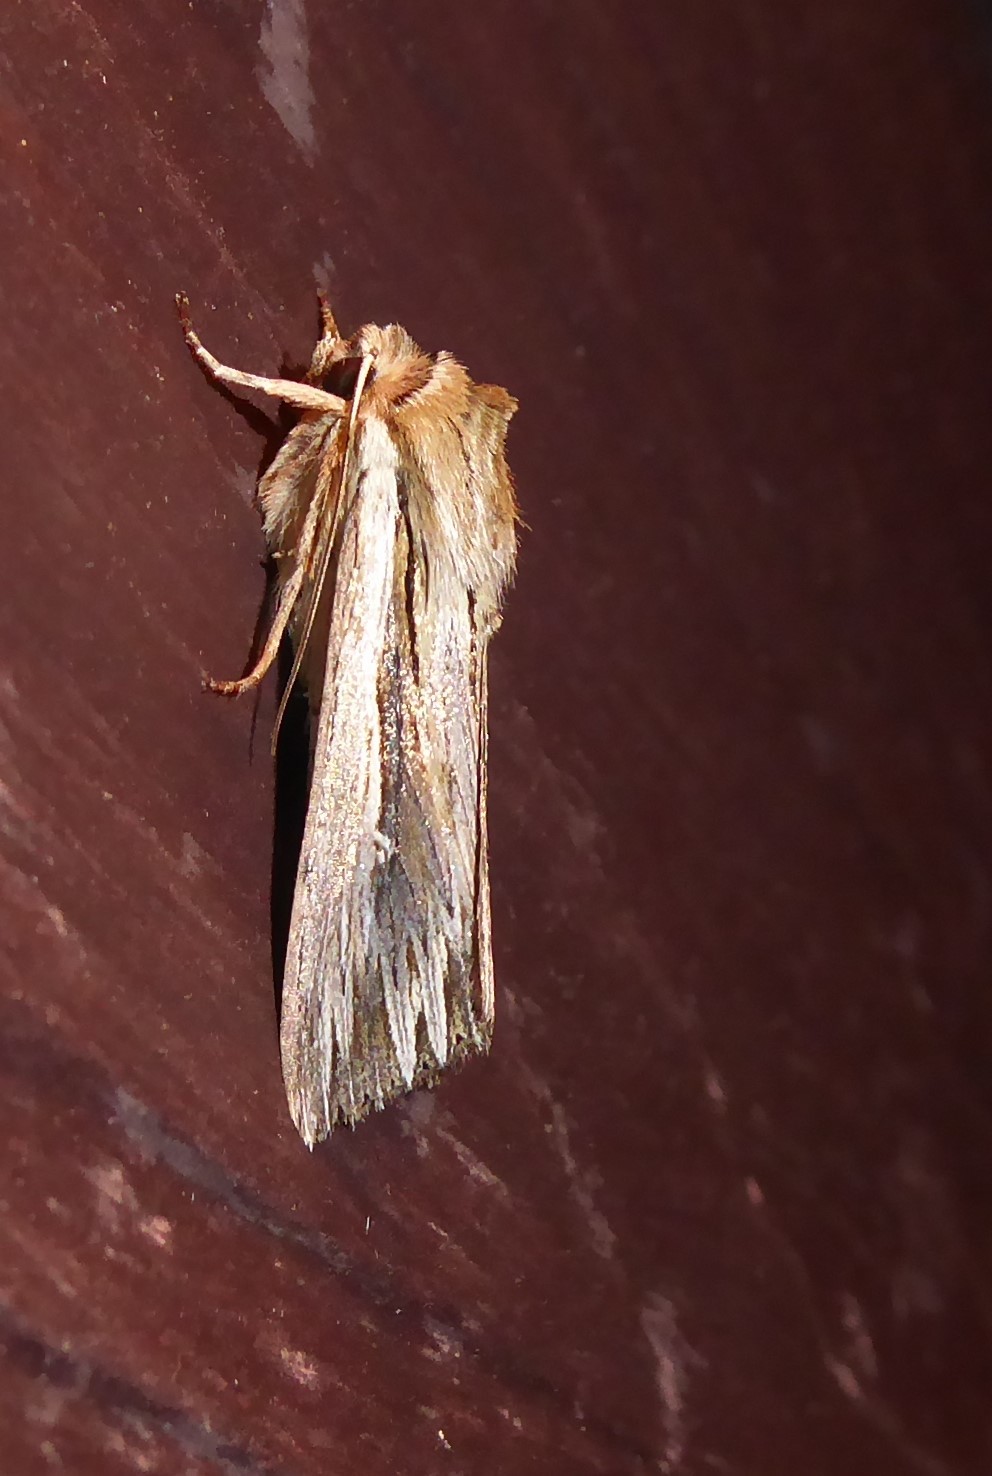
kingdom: Animalia
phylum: Arthropoda
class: Insecta
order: Lepidoptera
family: Noctuidae
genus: Persectania
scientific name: Persectania aversa
